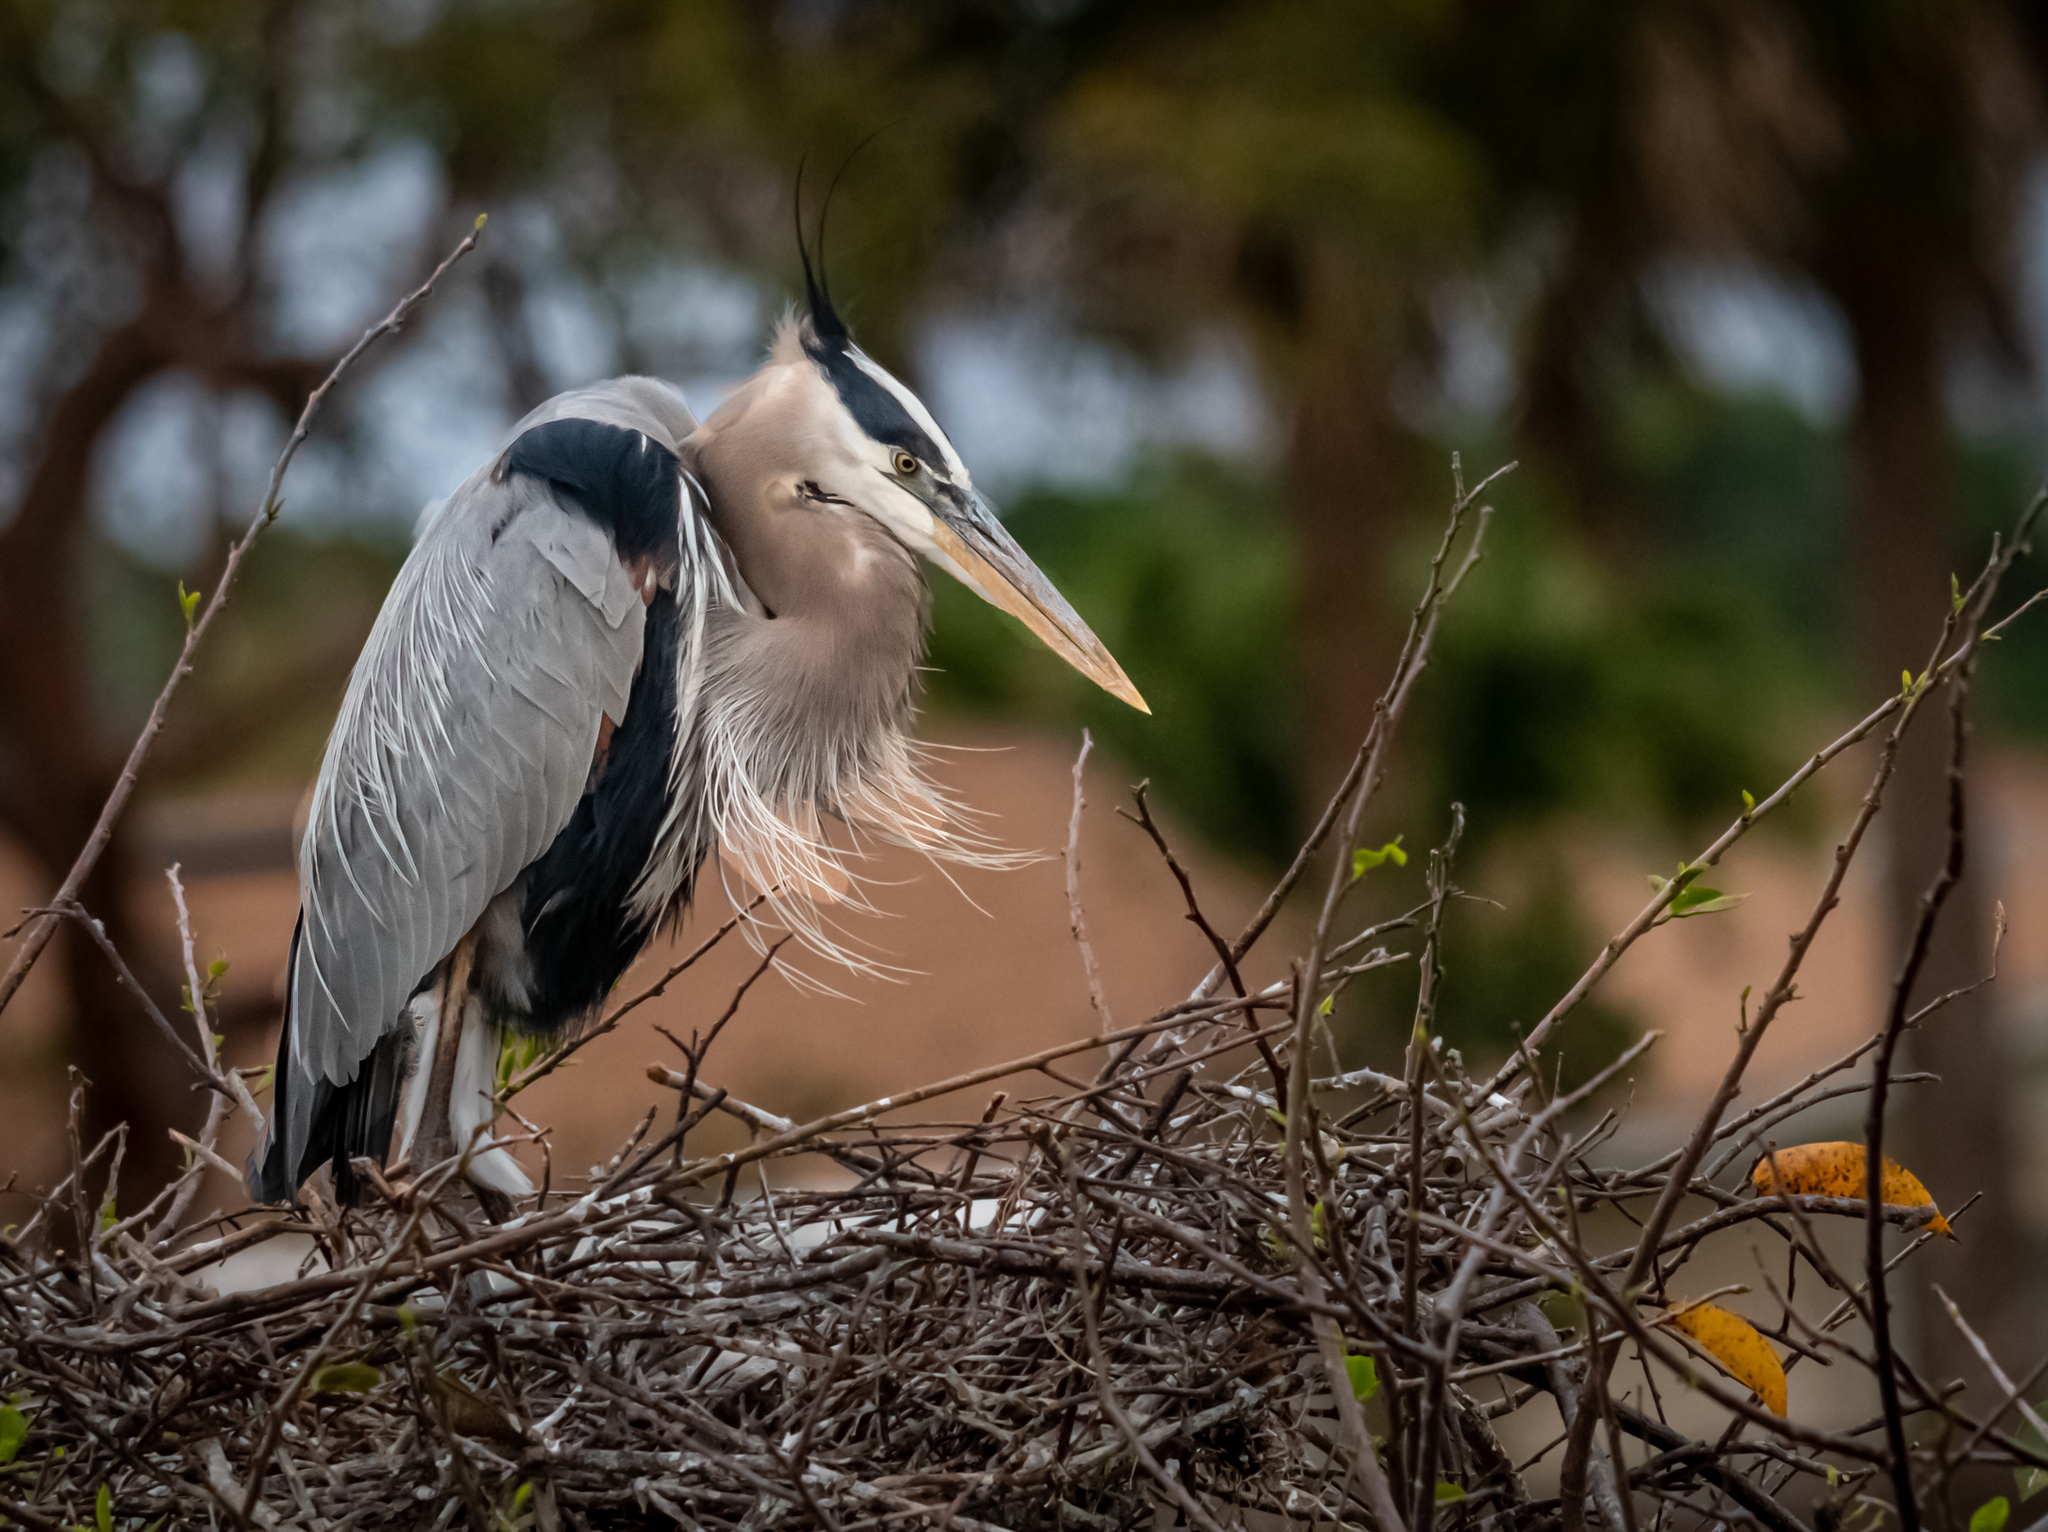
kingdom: Animalia
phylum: Chordata
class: Aves
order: Pelecaniformes
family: Ardeidae
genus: Ardea
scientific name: Ardea herodias
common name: Great blue heron
